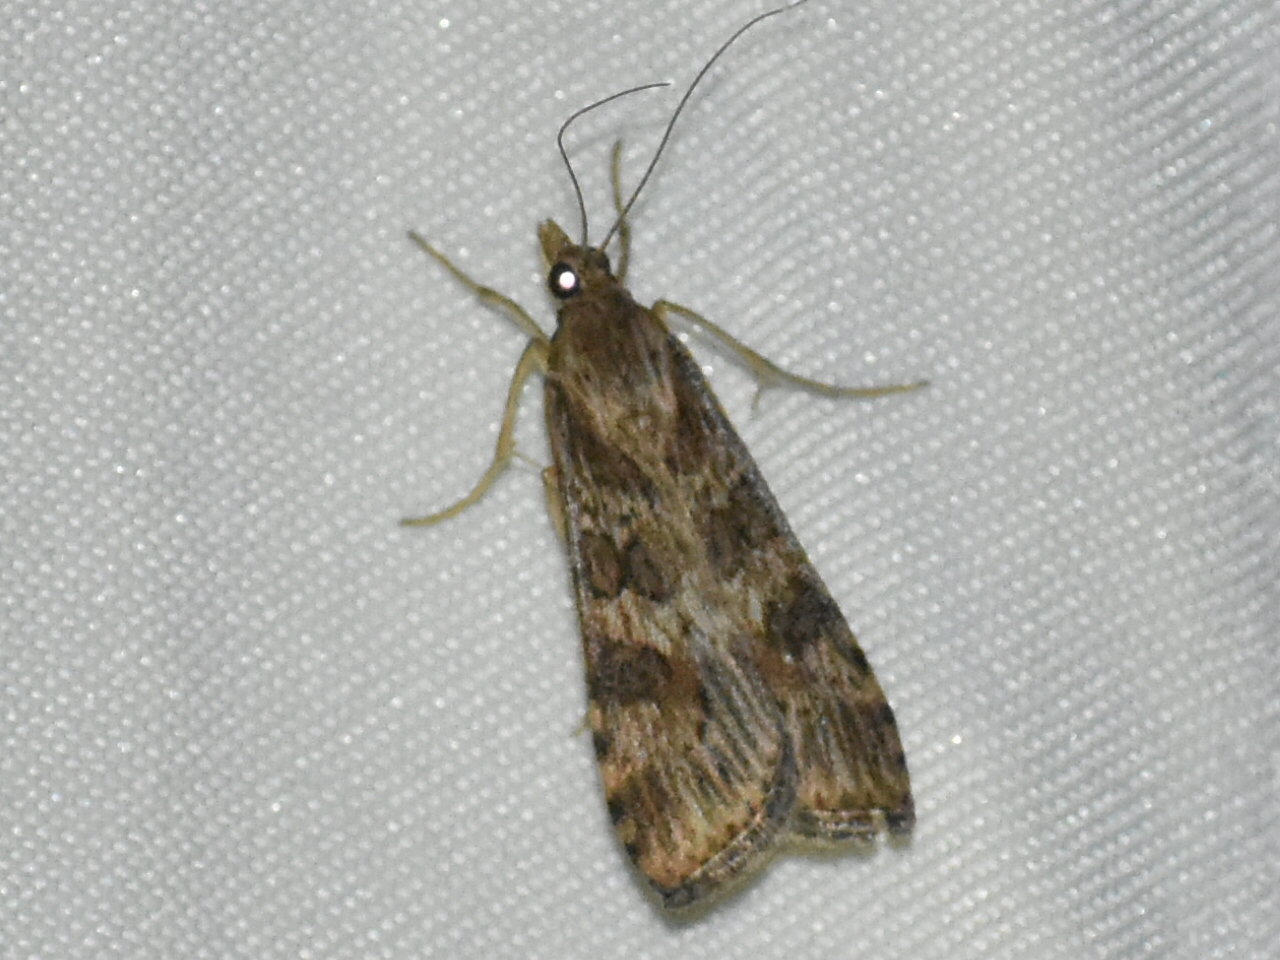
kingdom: Animalia
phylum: Arthropoda
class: Insecta
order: Lepidoptera
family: Crambidae
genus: Nomophila
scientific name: Nomophila nearctica
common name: American rush veneer
